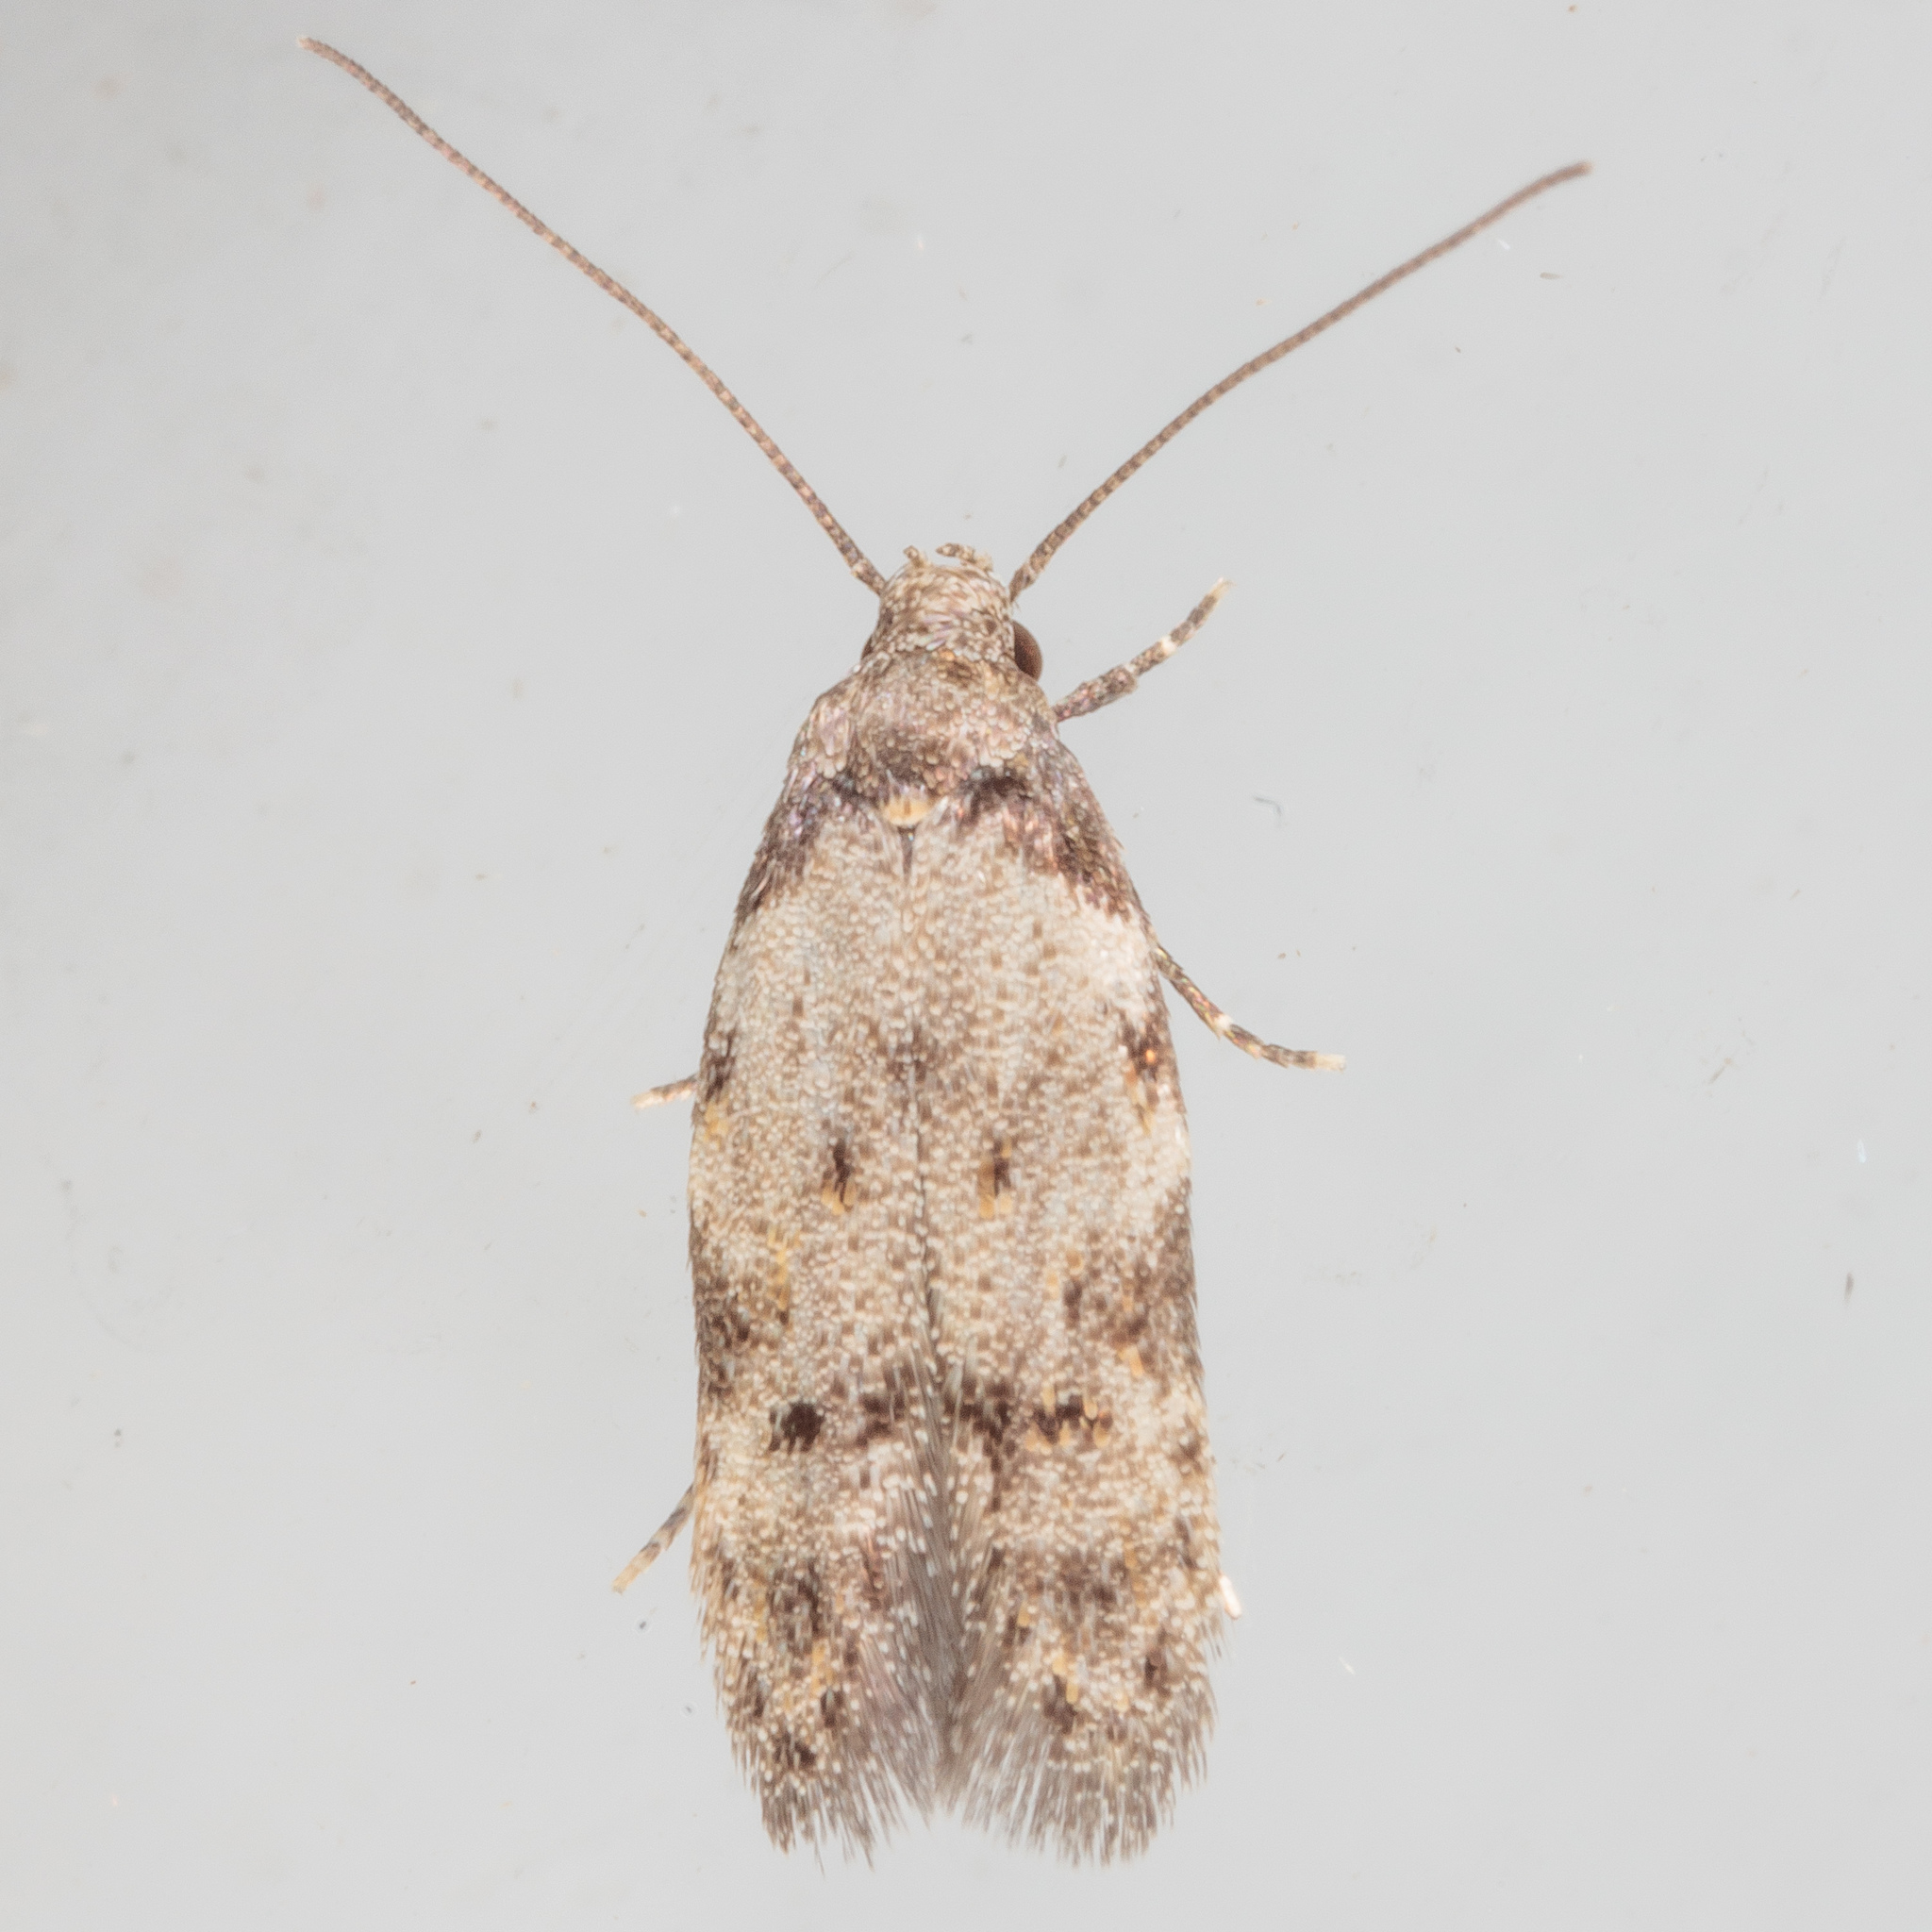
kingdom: Animalia
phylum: Arthropoda
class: Insecta
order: Lepidoptera
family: Autostichidae
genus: Taygete
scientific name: Taygete attributella
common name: Triangle-marked twirler moth
